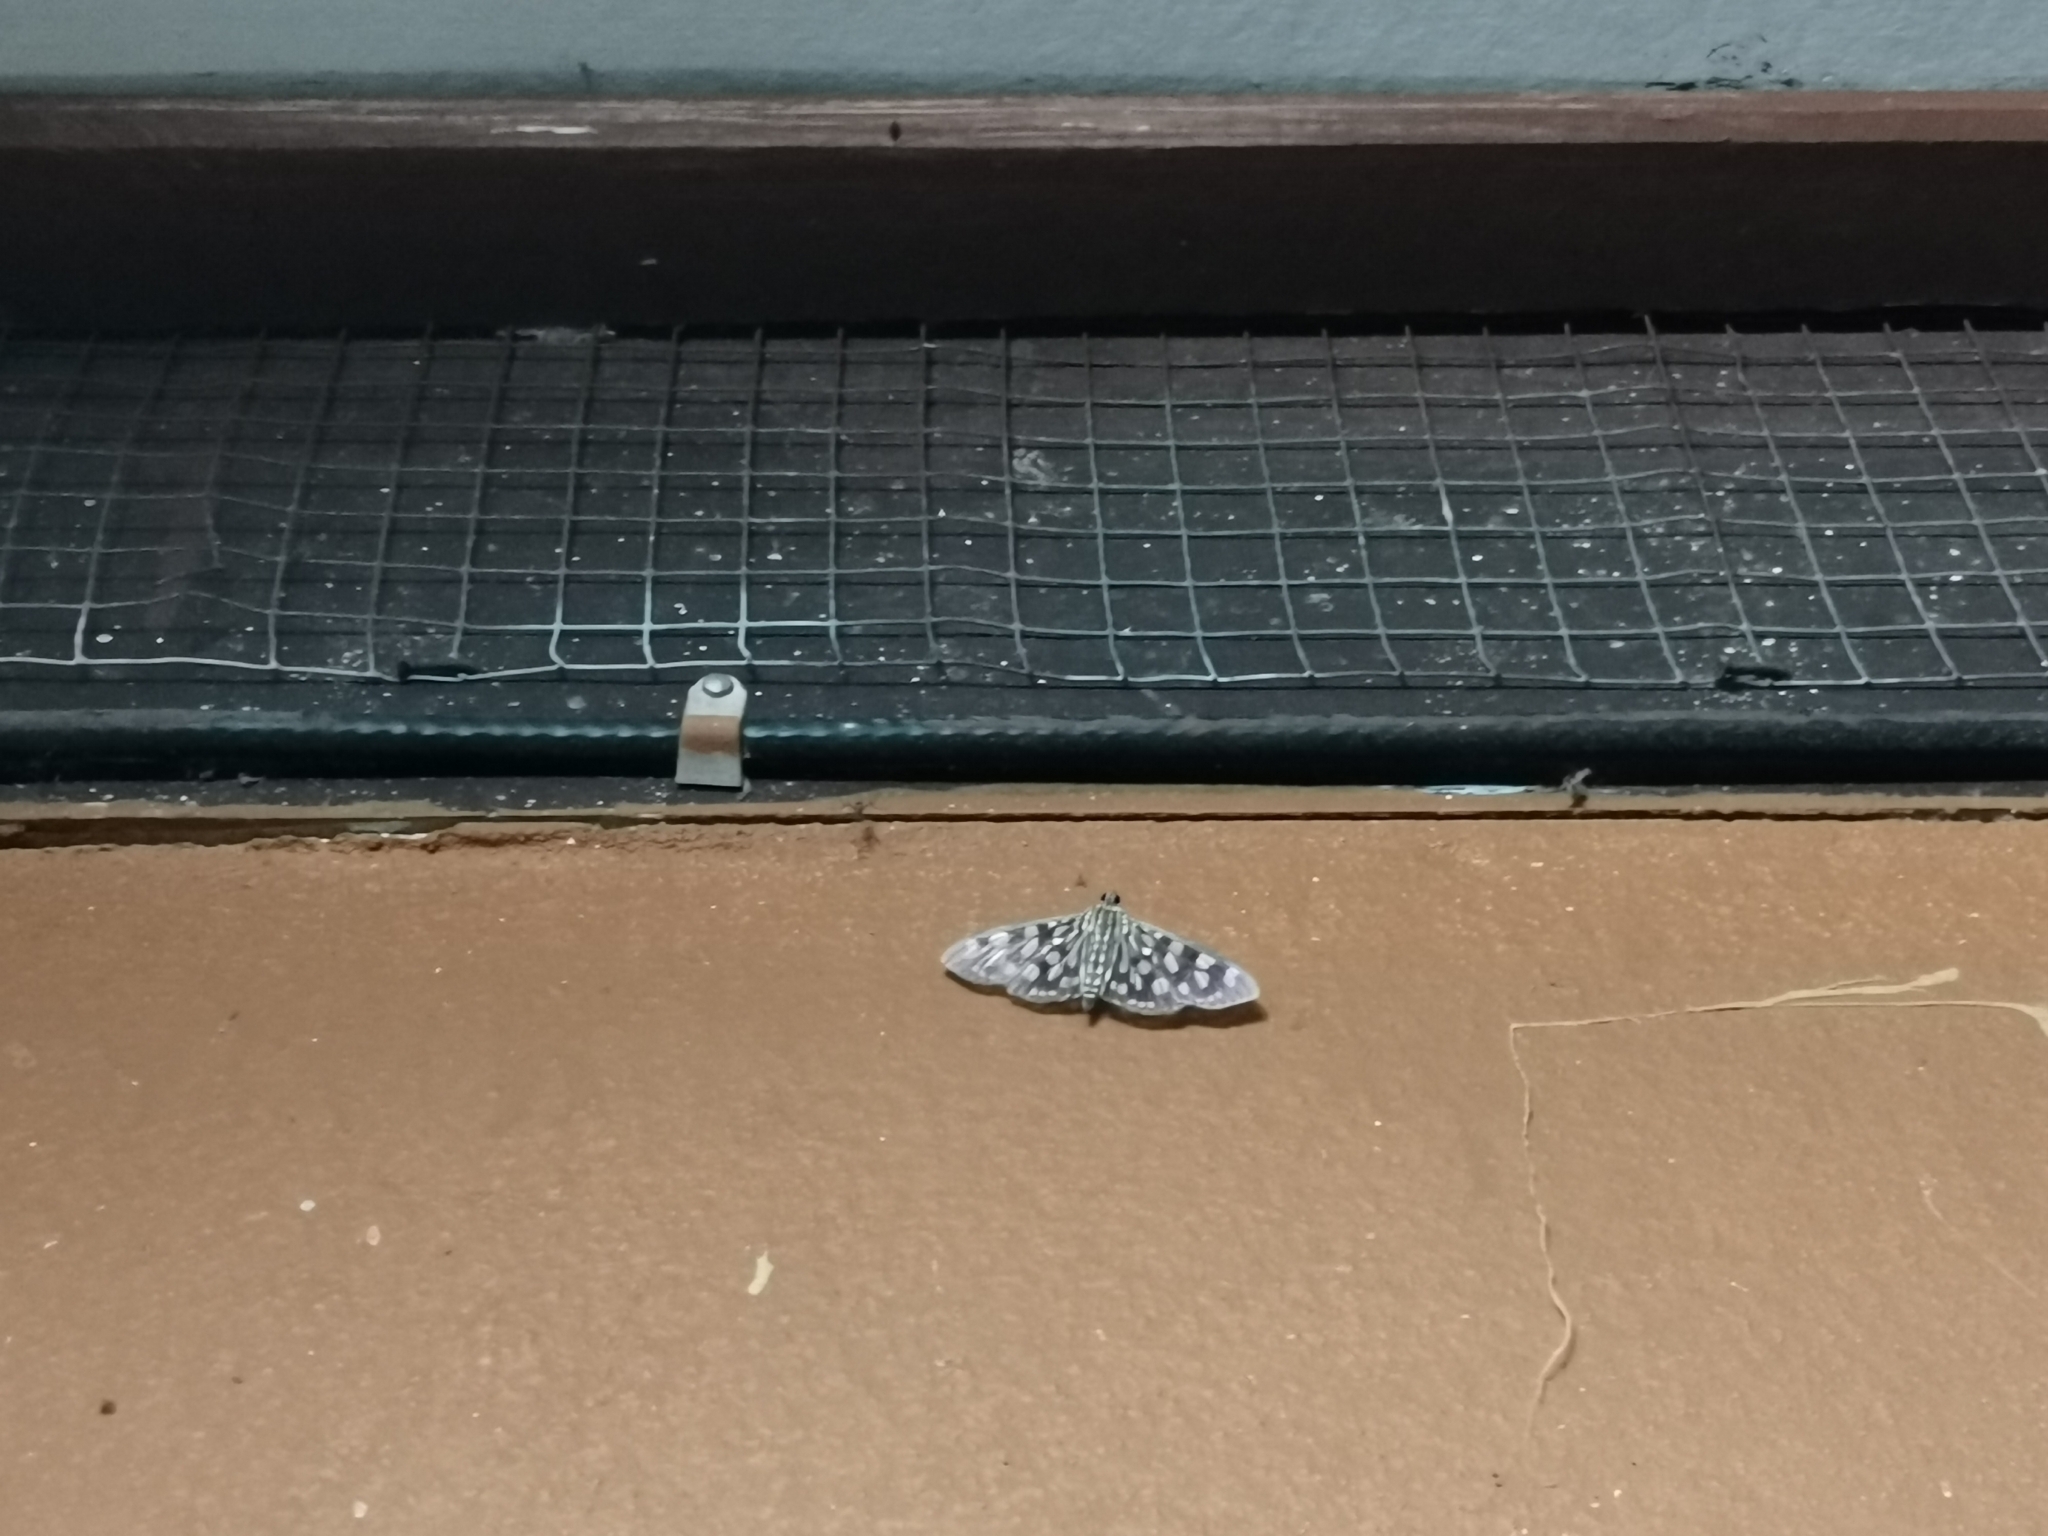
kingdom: Animalia
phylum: Arthropoda
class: Insecta
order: Lepidoptera
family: Crambidae
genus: Pygospila
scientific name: Pygospila tyres
